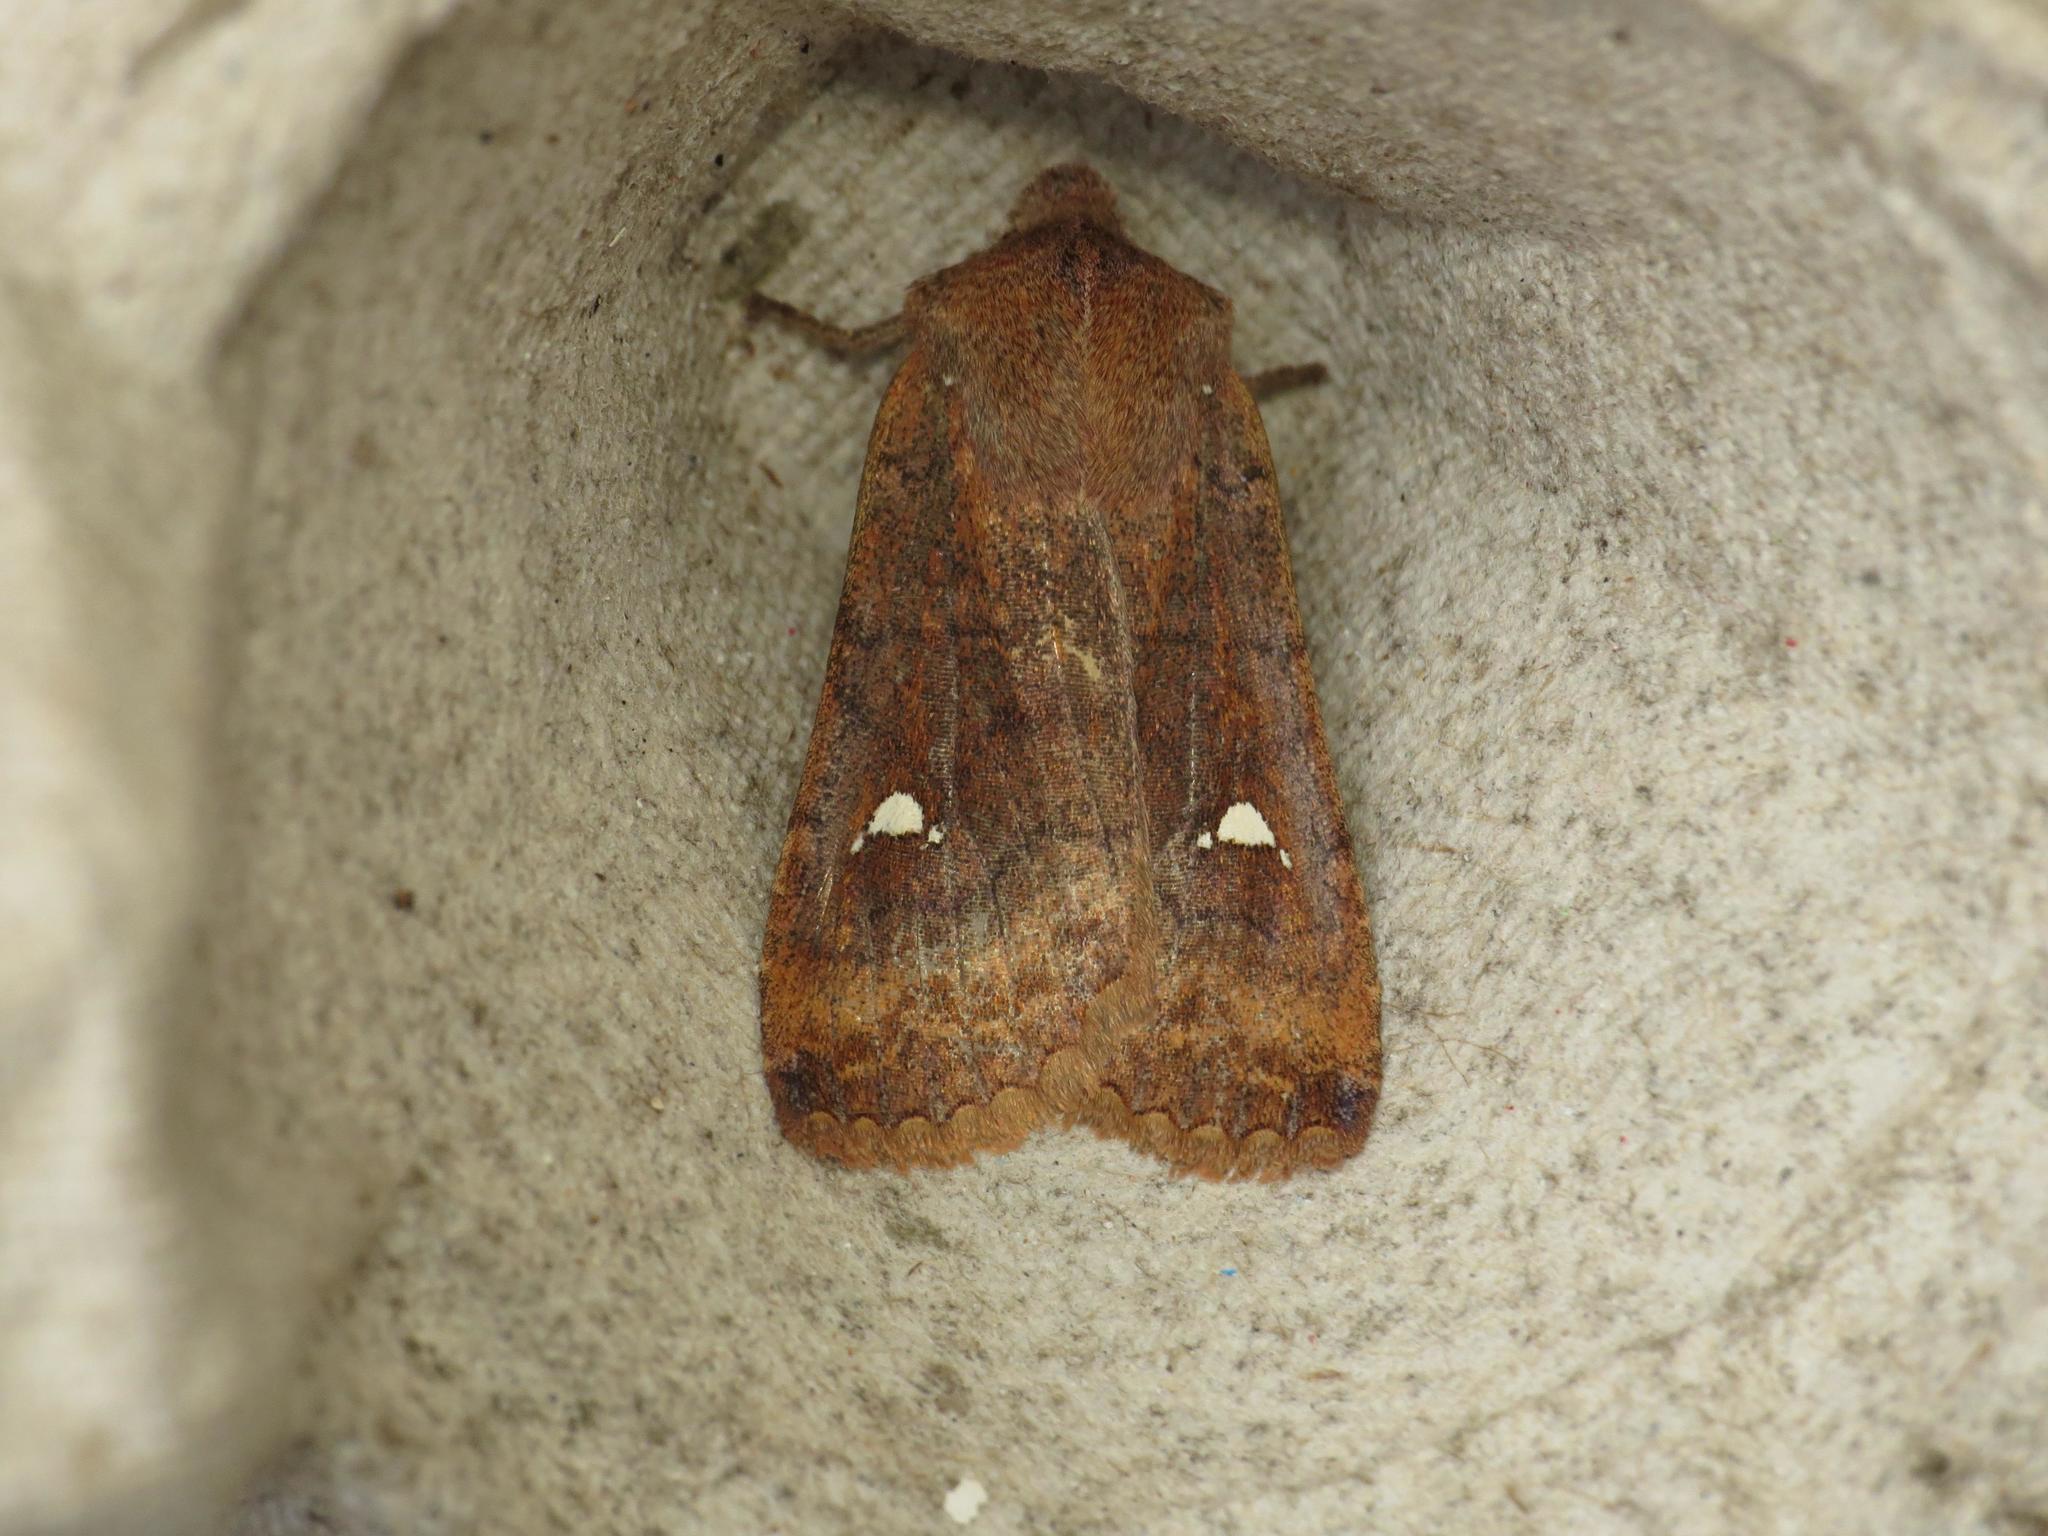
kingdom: Animalia
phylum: Arthropoda
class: Insecta
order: Lepidoptera
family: Noctuidae
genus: Eupsilia
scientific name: Eupsilia transversa
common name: Satellite
